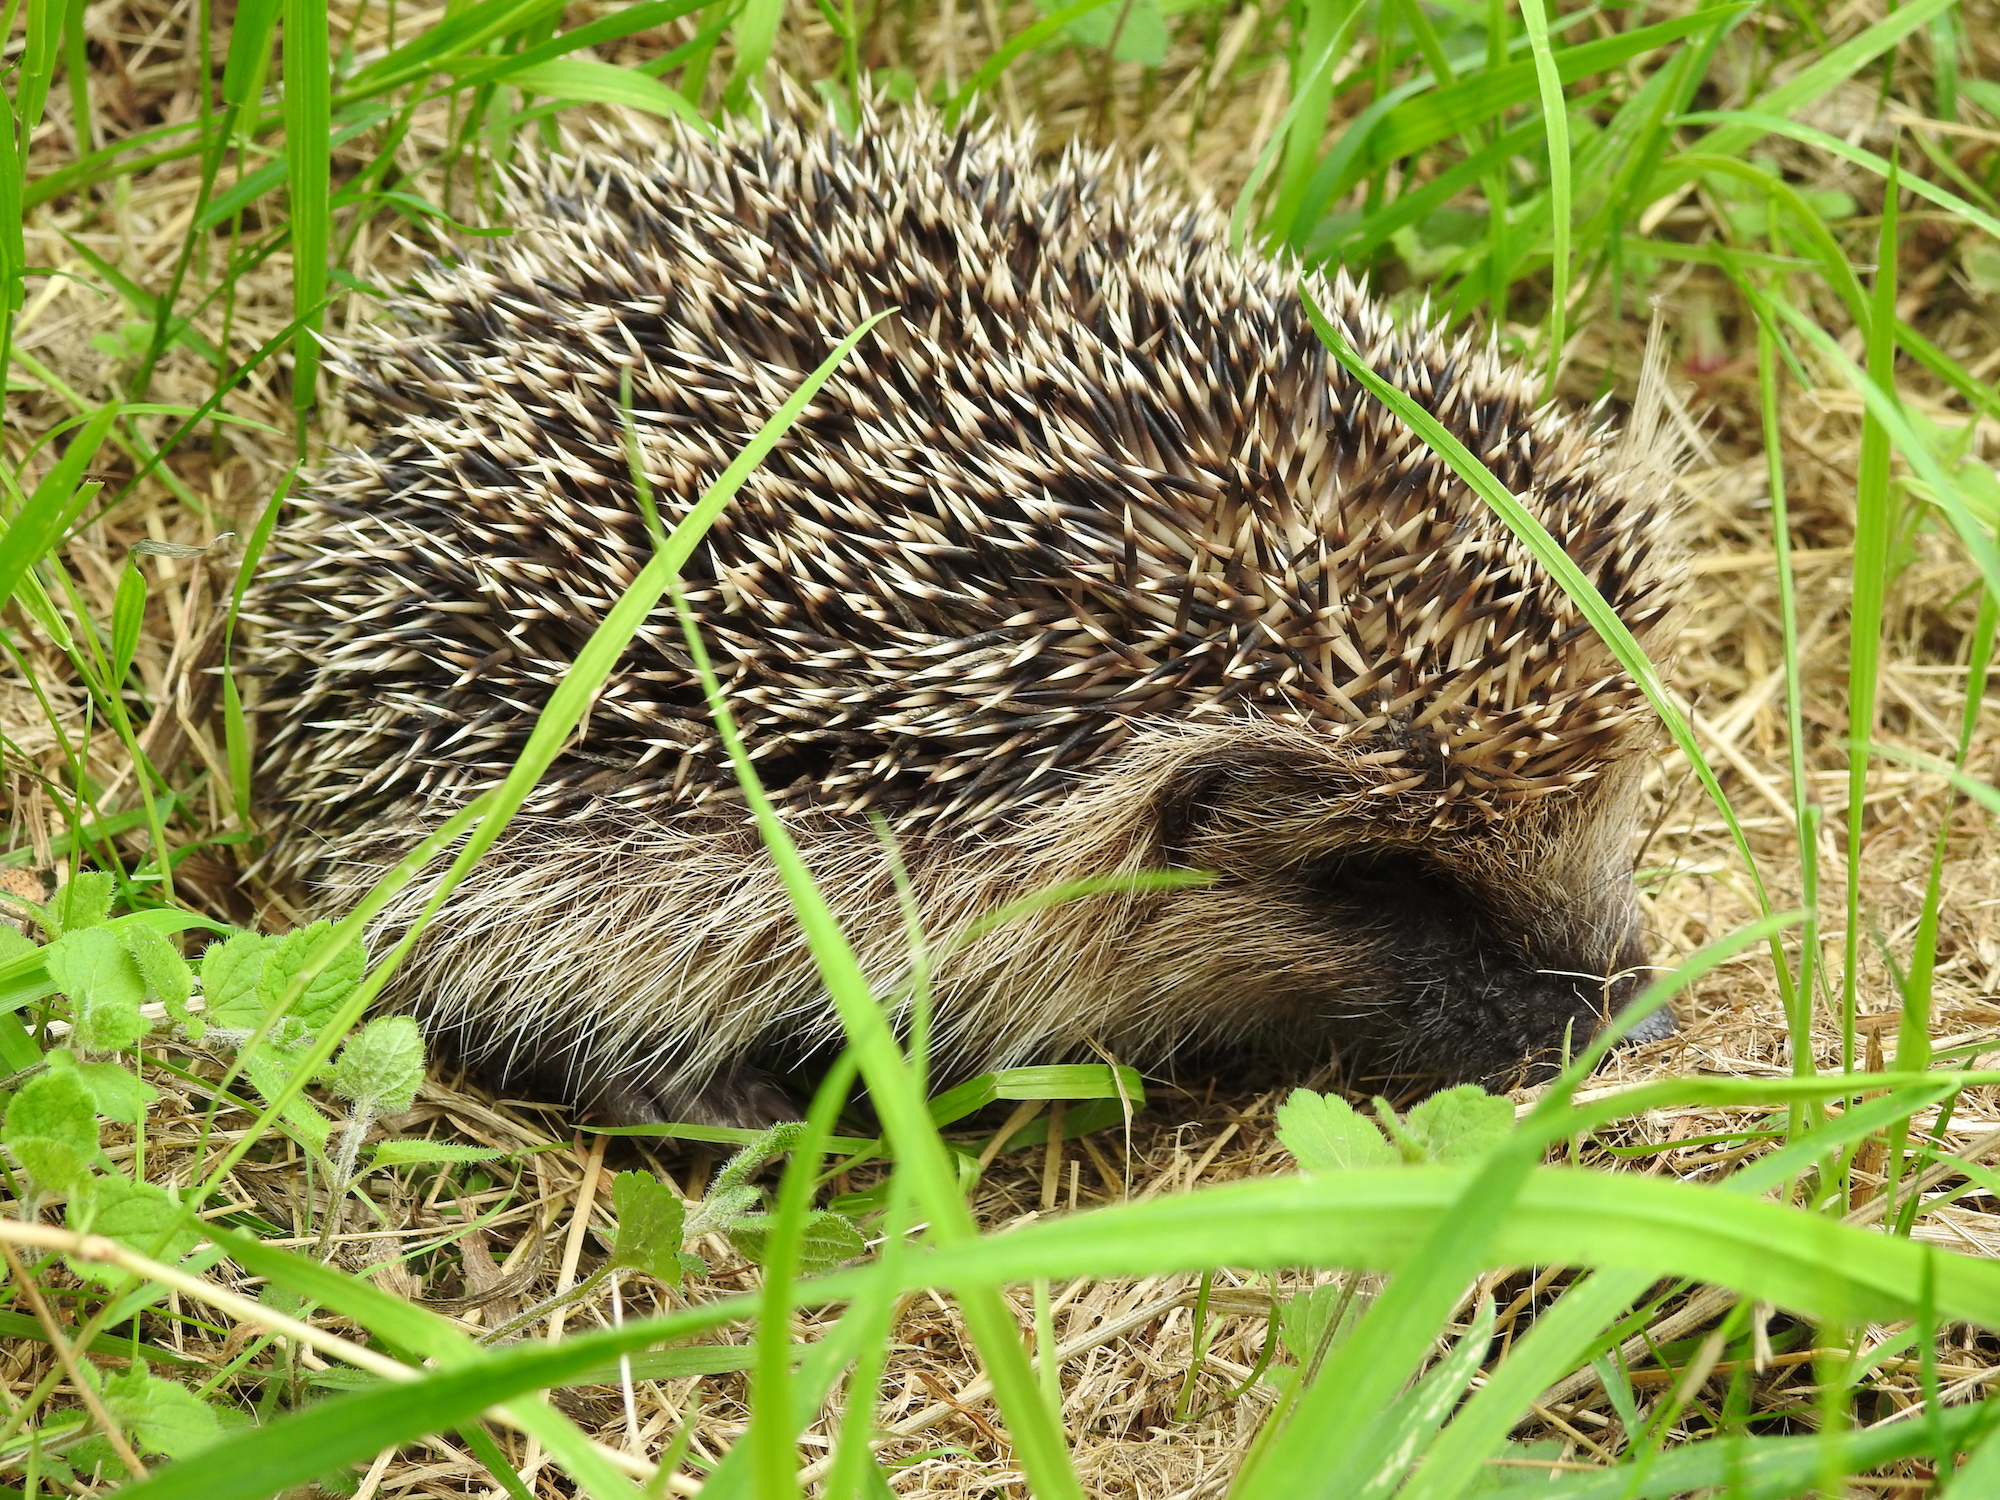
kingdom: Animalia
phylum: Chordata
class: Mammalia
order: Erinaceomorpha
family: Erinaceidae
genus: Erinaceus
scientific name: Erinaceus europaeus
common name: West european hedgehog
